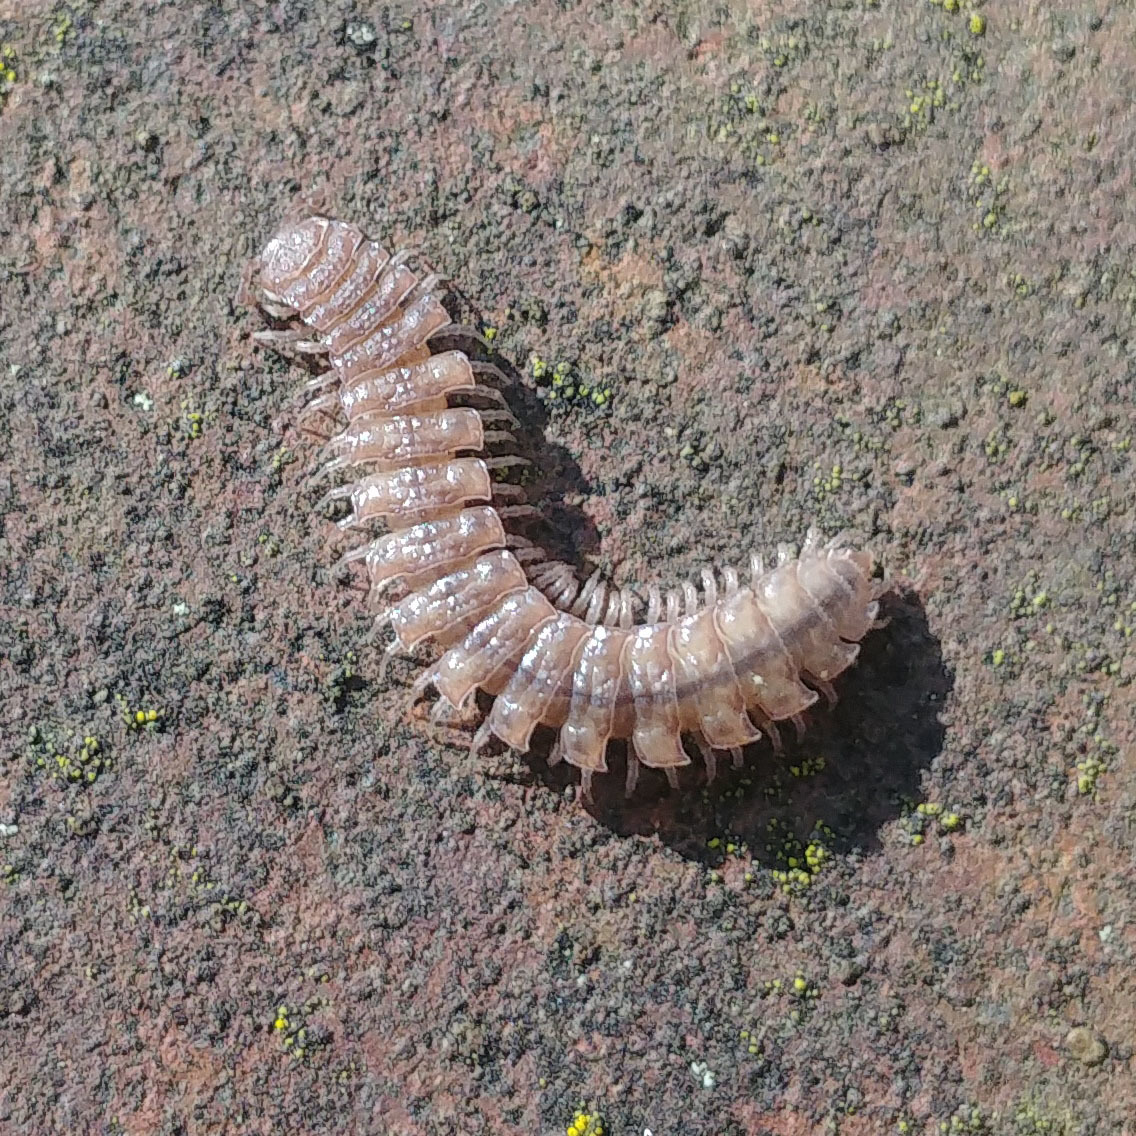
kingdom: Animalia
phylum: Arthropoda
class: Diplopoda
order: Polydesmida
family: Polydesmidae
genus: Polydesmus
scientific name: Polydesmus angustus
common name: Flat millipede
